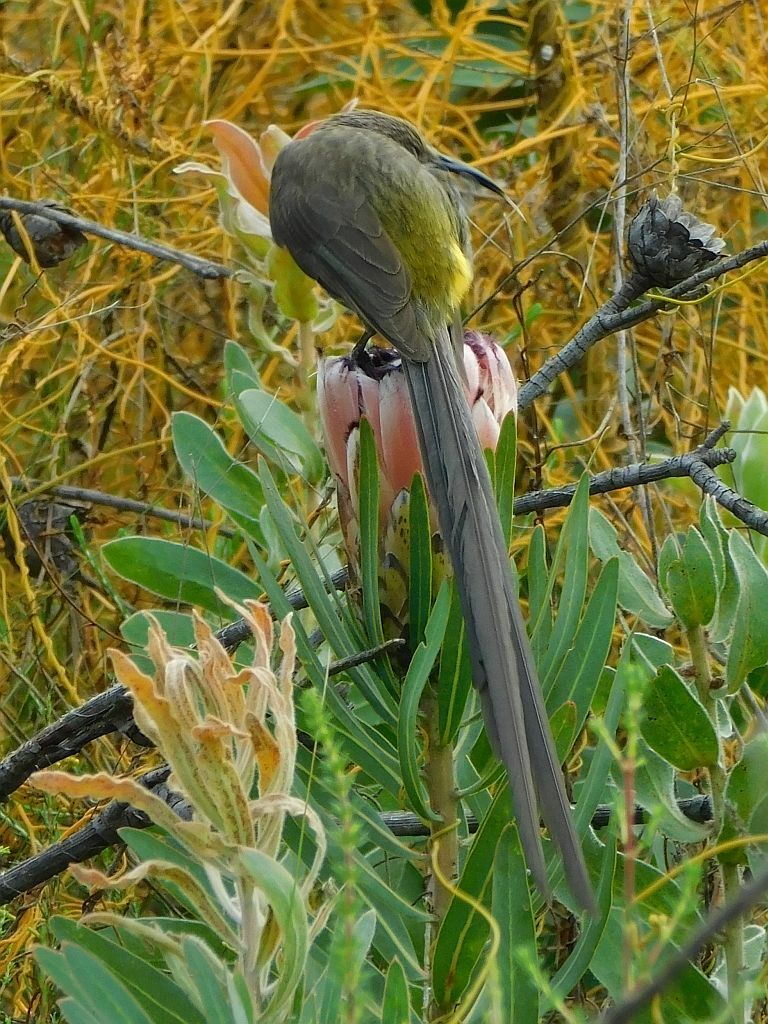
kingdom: Animalia
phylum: Chordata
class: Aves
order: Passeriformes
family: Promeropidae
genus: Promerops
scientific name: Promerops cafer
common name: Cape sugarbird
